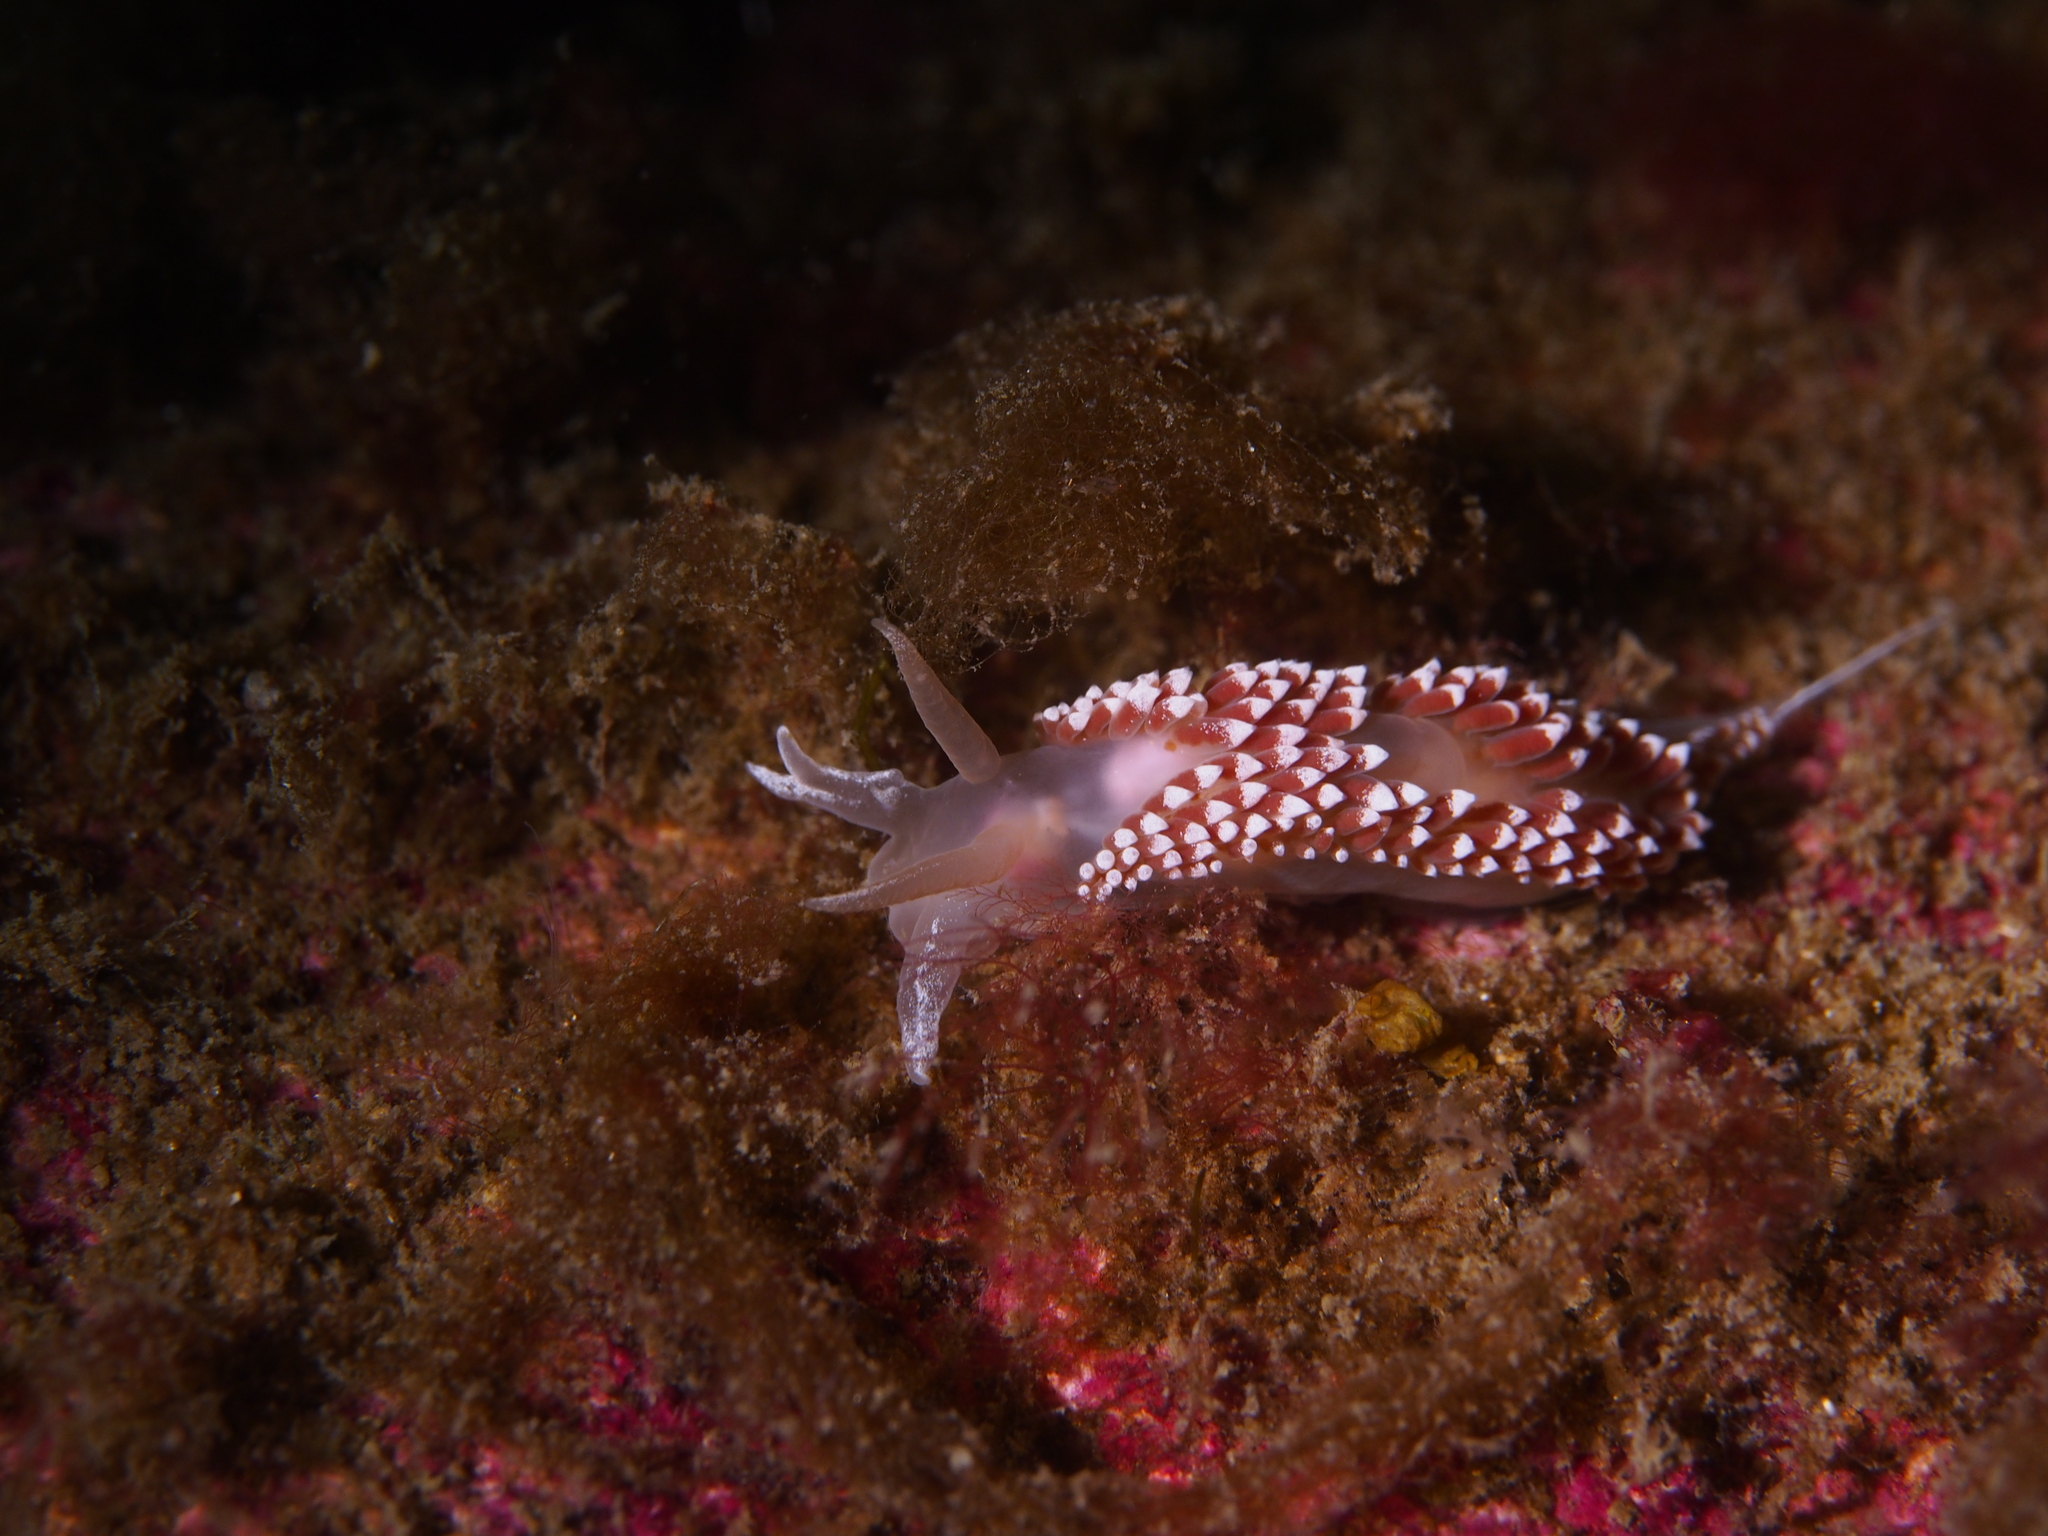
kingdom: Animalia
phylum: Mollusca
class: Gastropoda
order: Nudibranchia
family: Coryphellidae
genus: Coryphella
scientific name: Coryphella verrucosa
